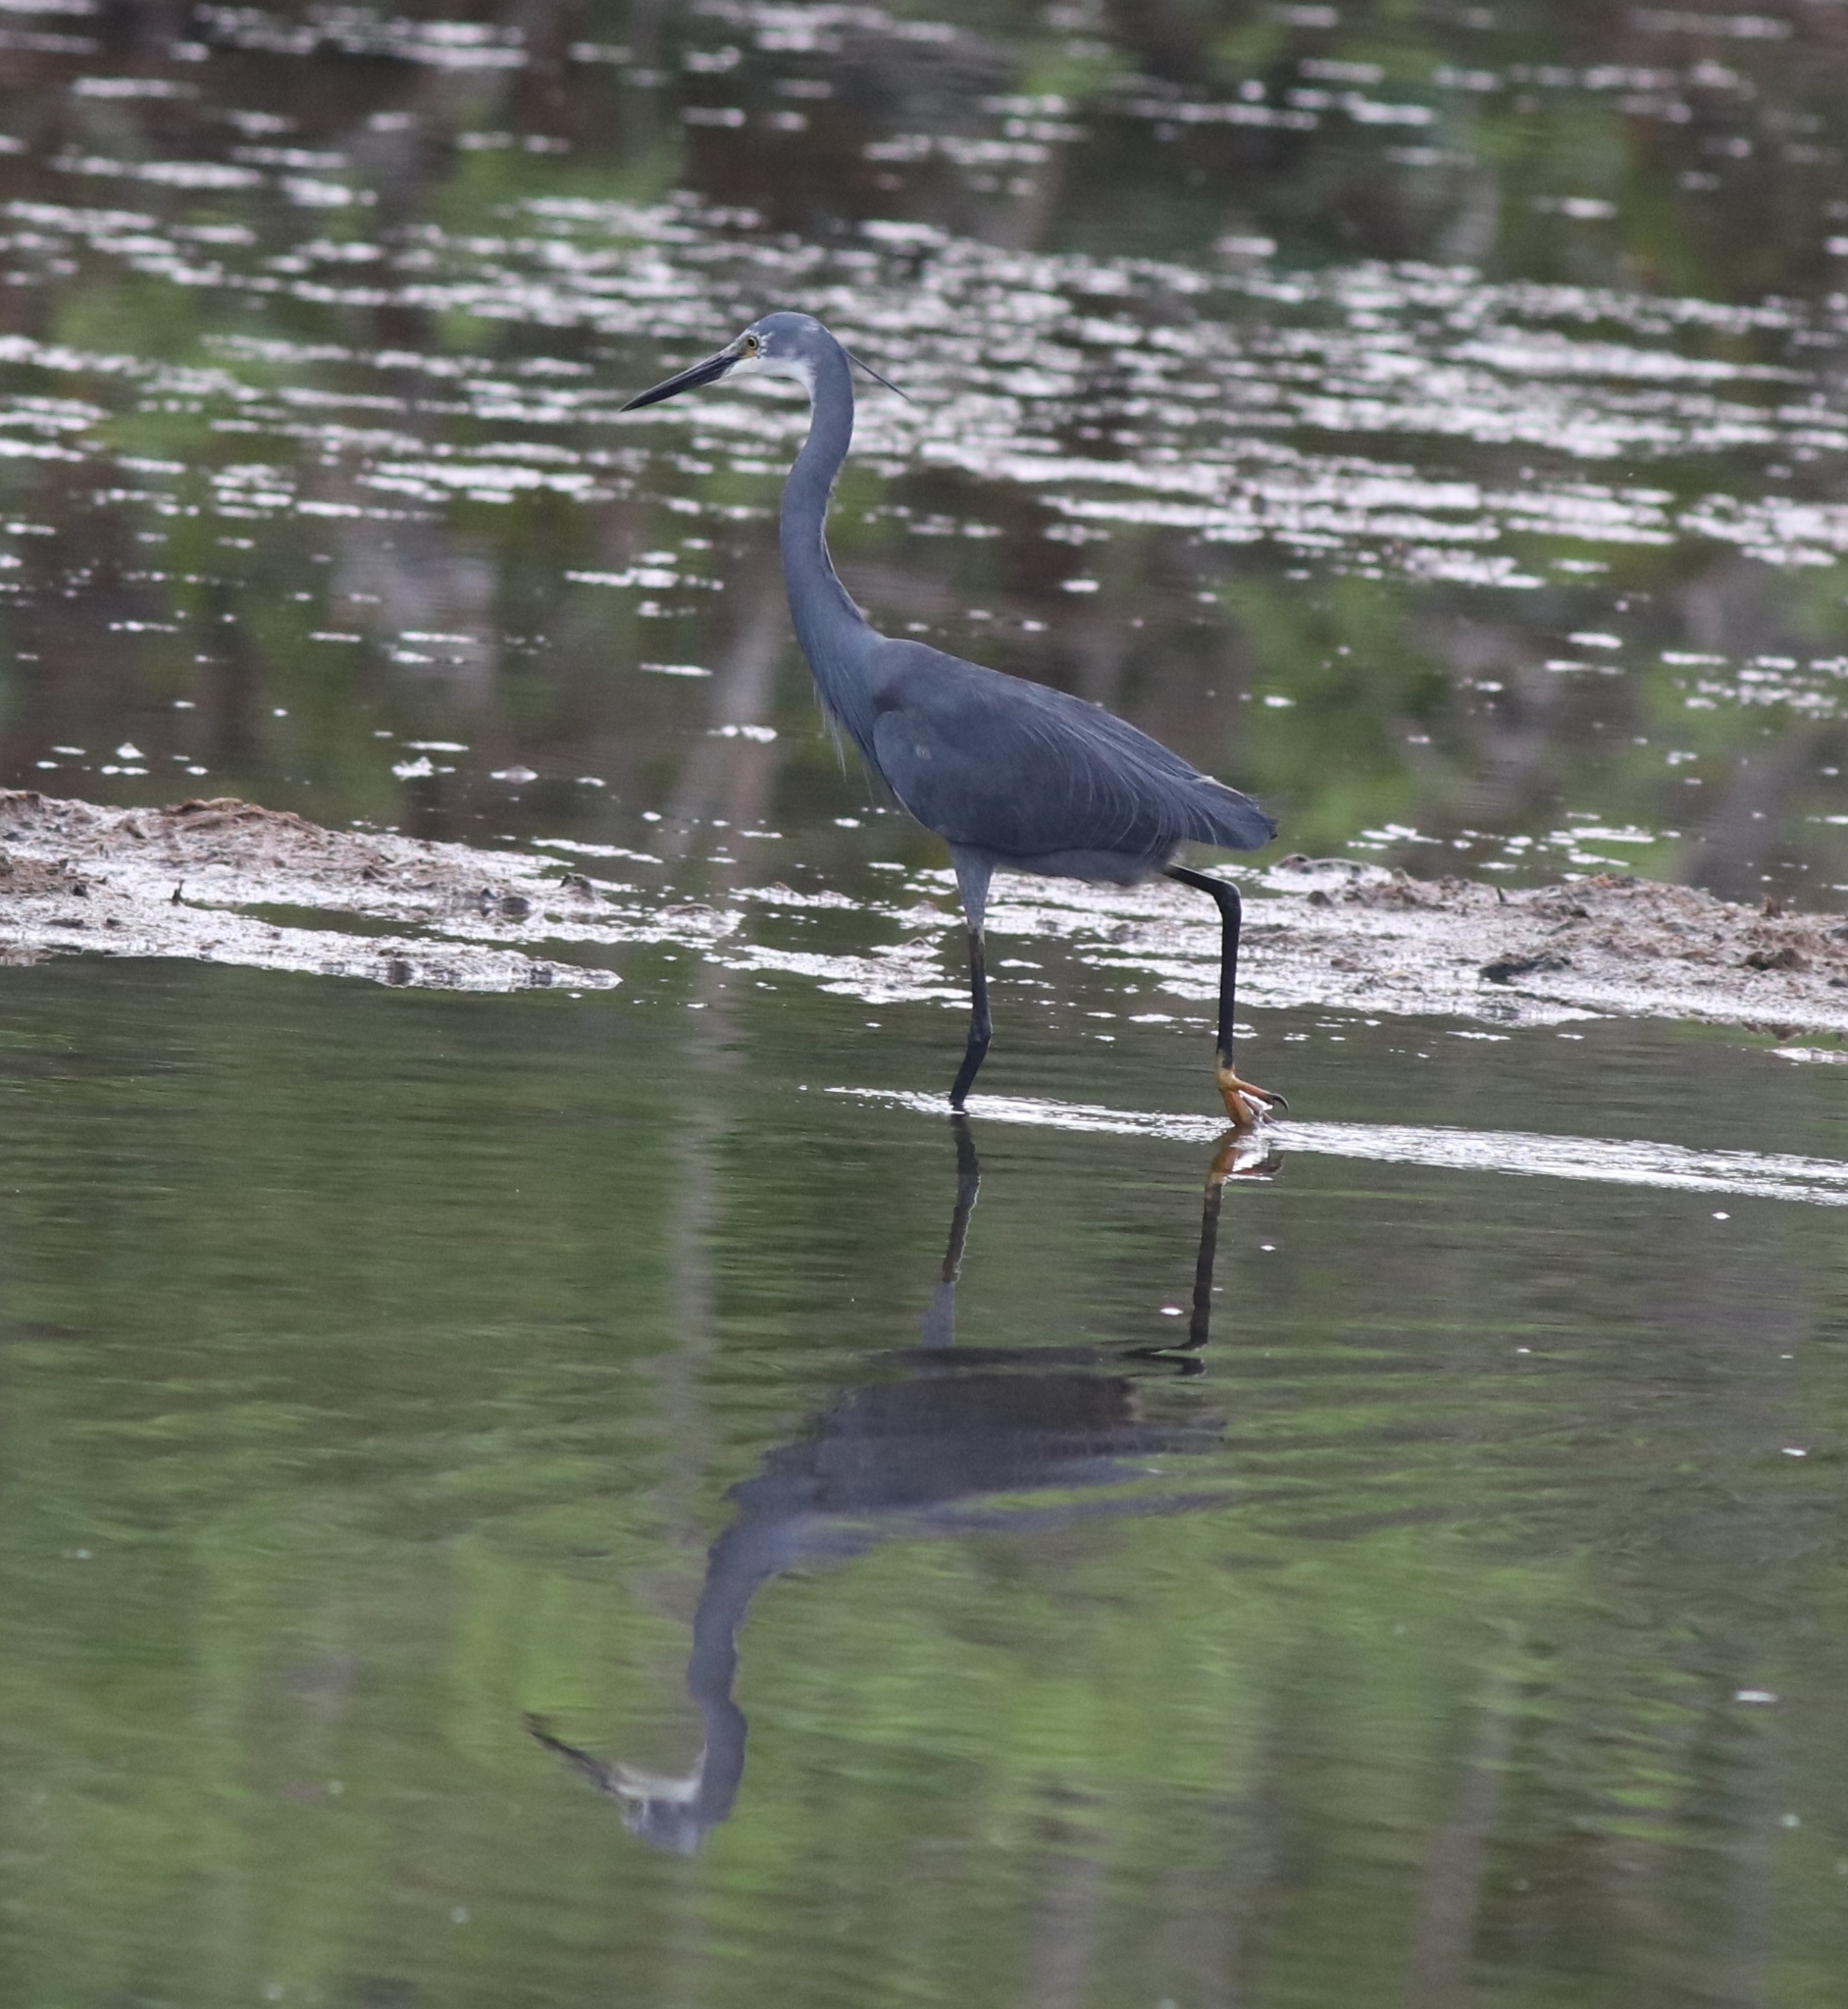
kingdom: Animalia
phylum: Chordata
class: Aves
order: Pelecaniformes
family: Ardeidae
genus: Egretta
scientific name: Egretta garzetta
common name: Little egret
